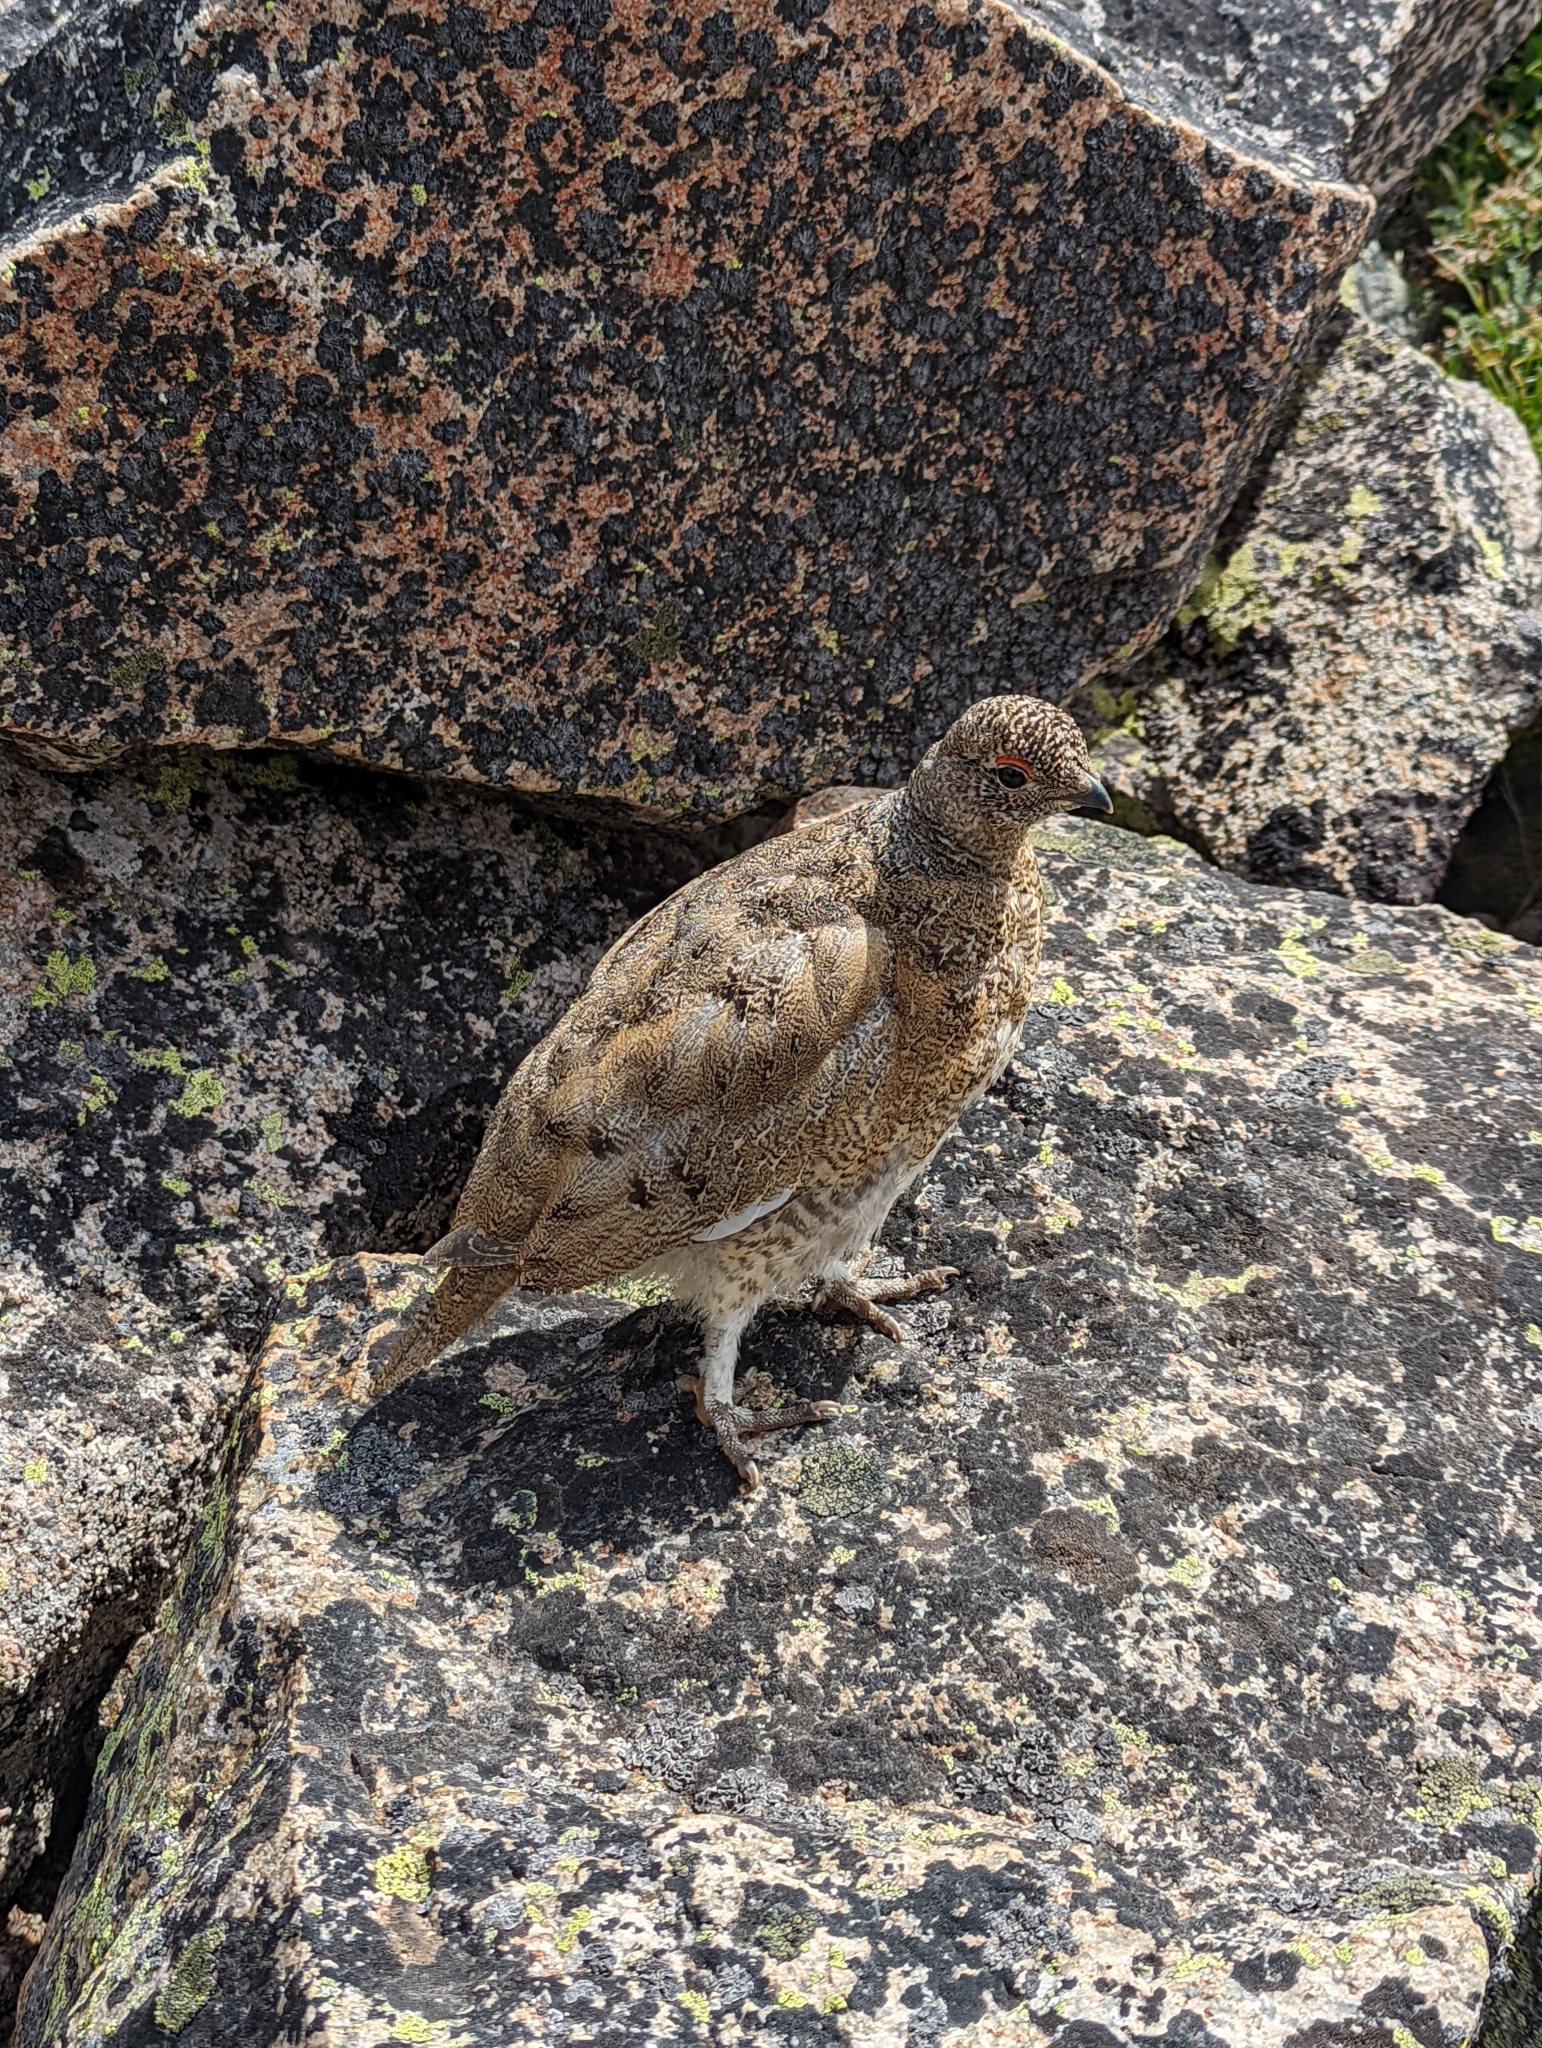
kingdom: Animalia
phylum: Chordata
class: Aves
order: Galliformes
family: Phasianidae
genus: Lagopus
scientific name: Lagopus leucura
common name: White-tailed ptarmigan
